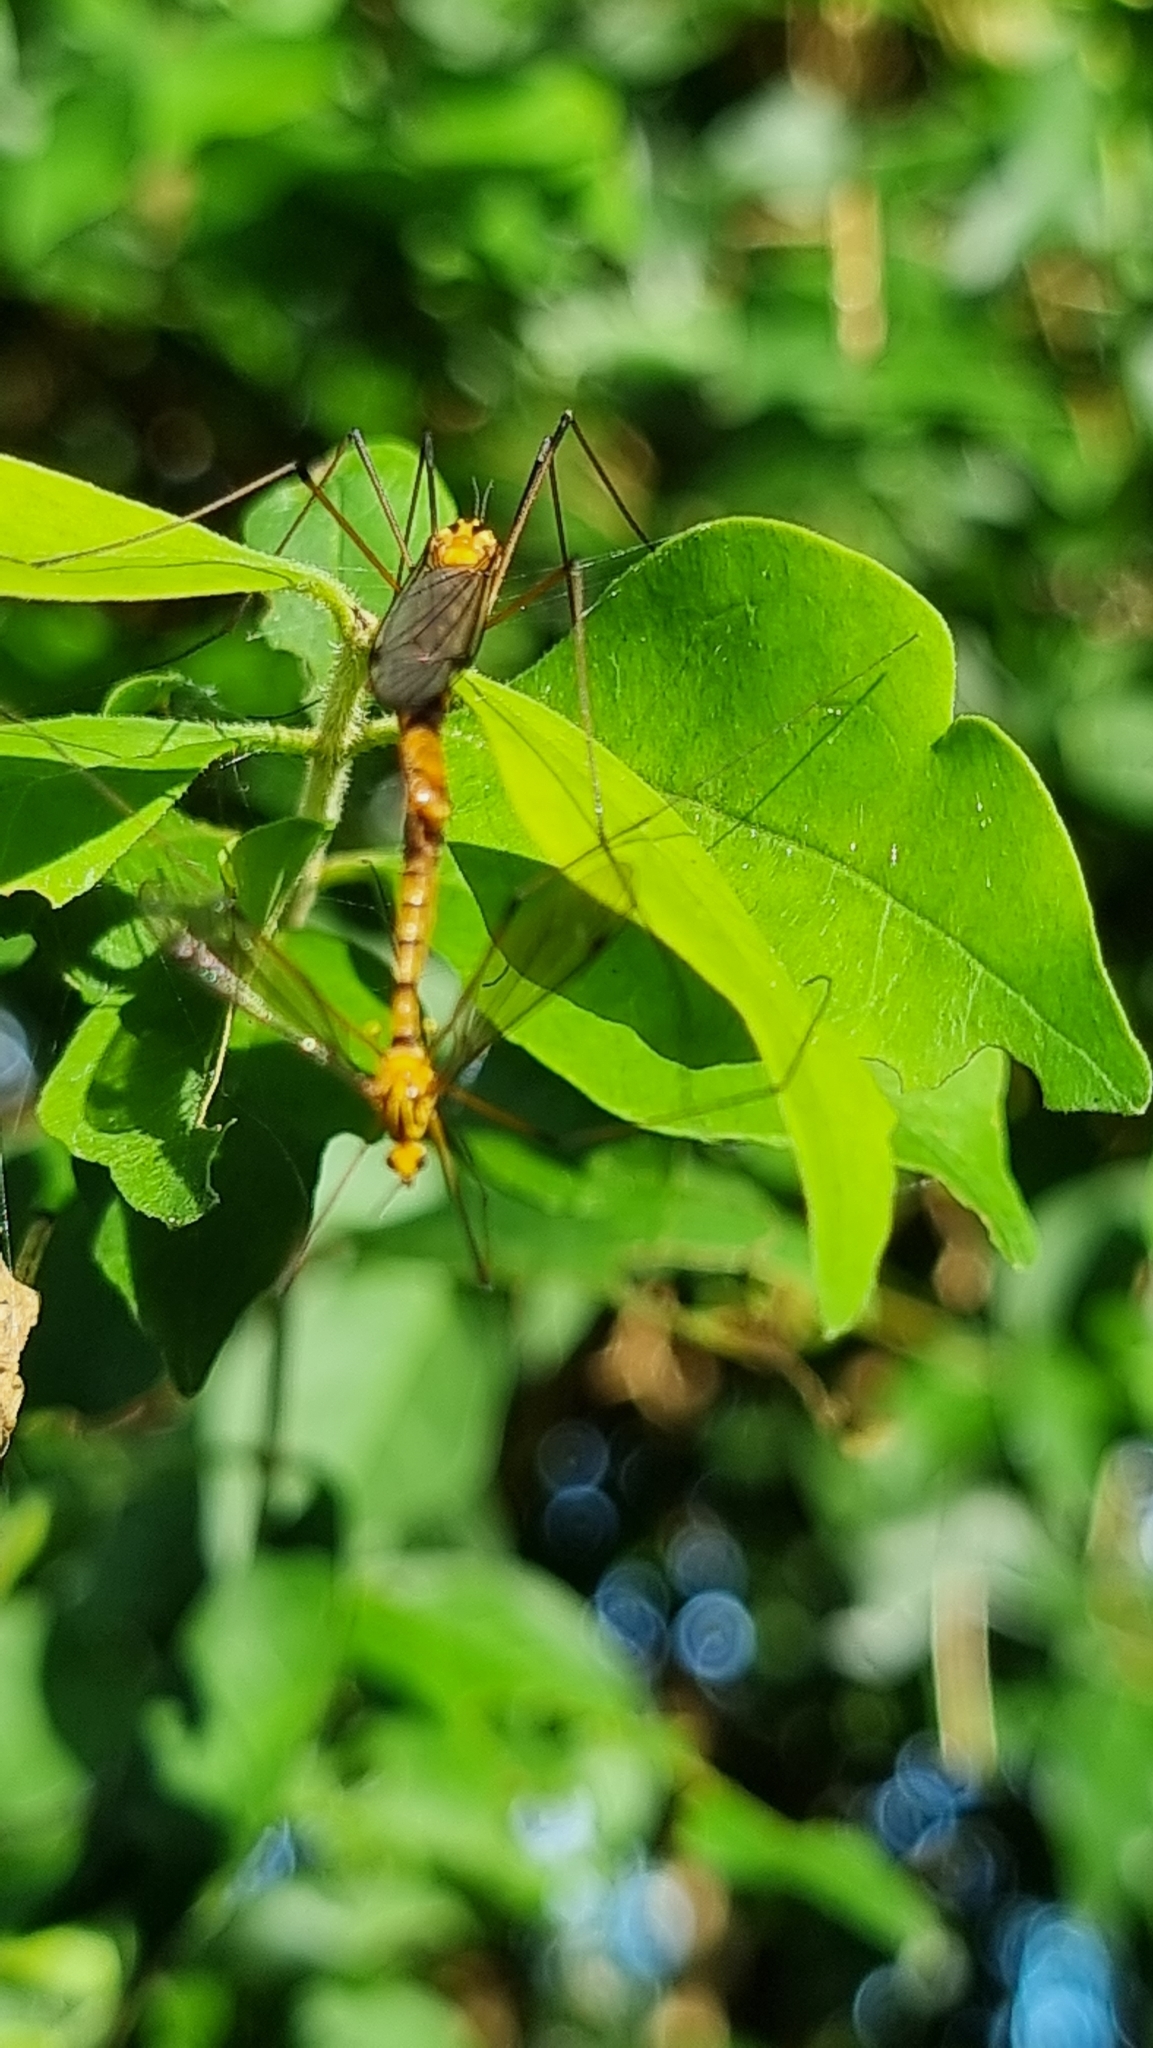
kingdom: Animalia
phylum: Arthropoda
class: Insecta
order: Diptera
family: Tipulidae
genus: Nephrotoma
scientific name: Nephrotoma australasiae
